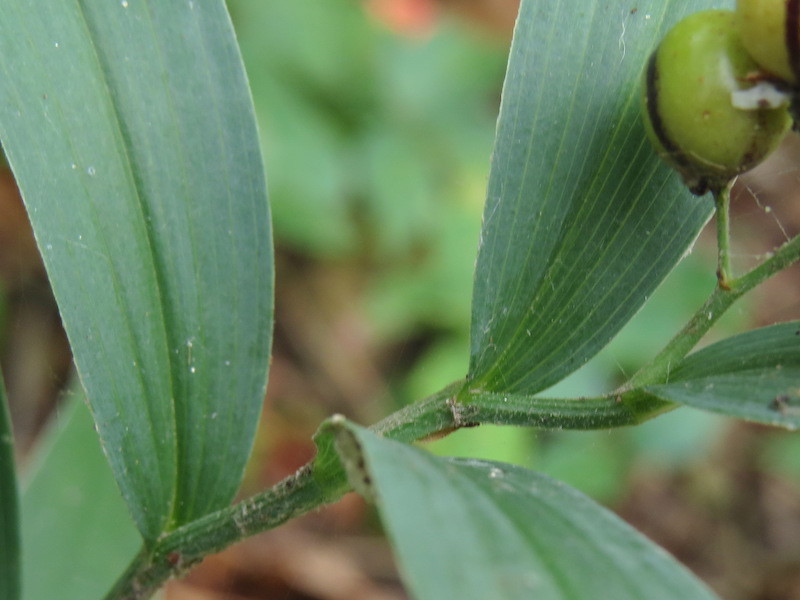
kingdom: Plantae
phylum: Tracheophyta
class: Liliopsida
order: Asparagales
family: Asparagaceae
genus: Maianthemum
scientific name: Maianthemum stellatum
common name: Little false solomon's seal
